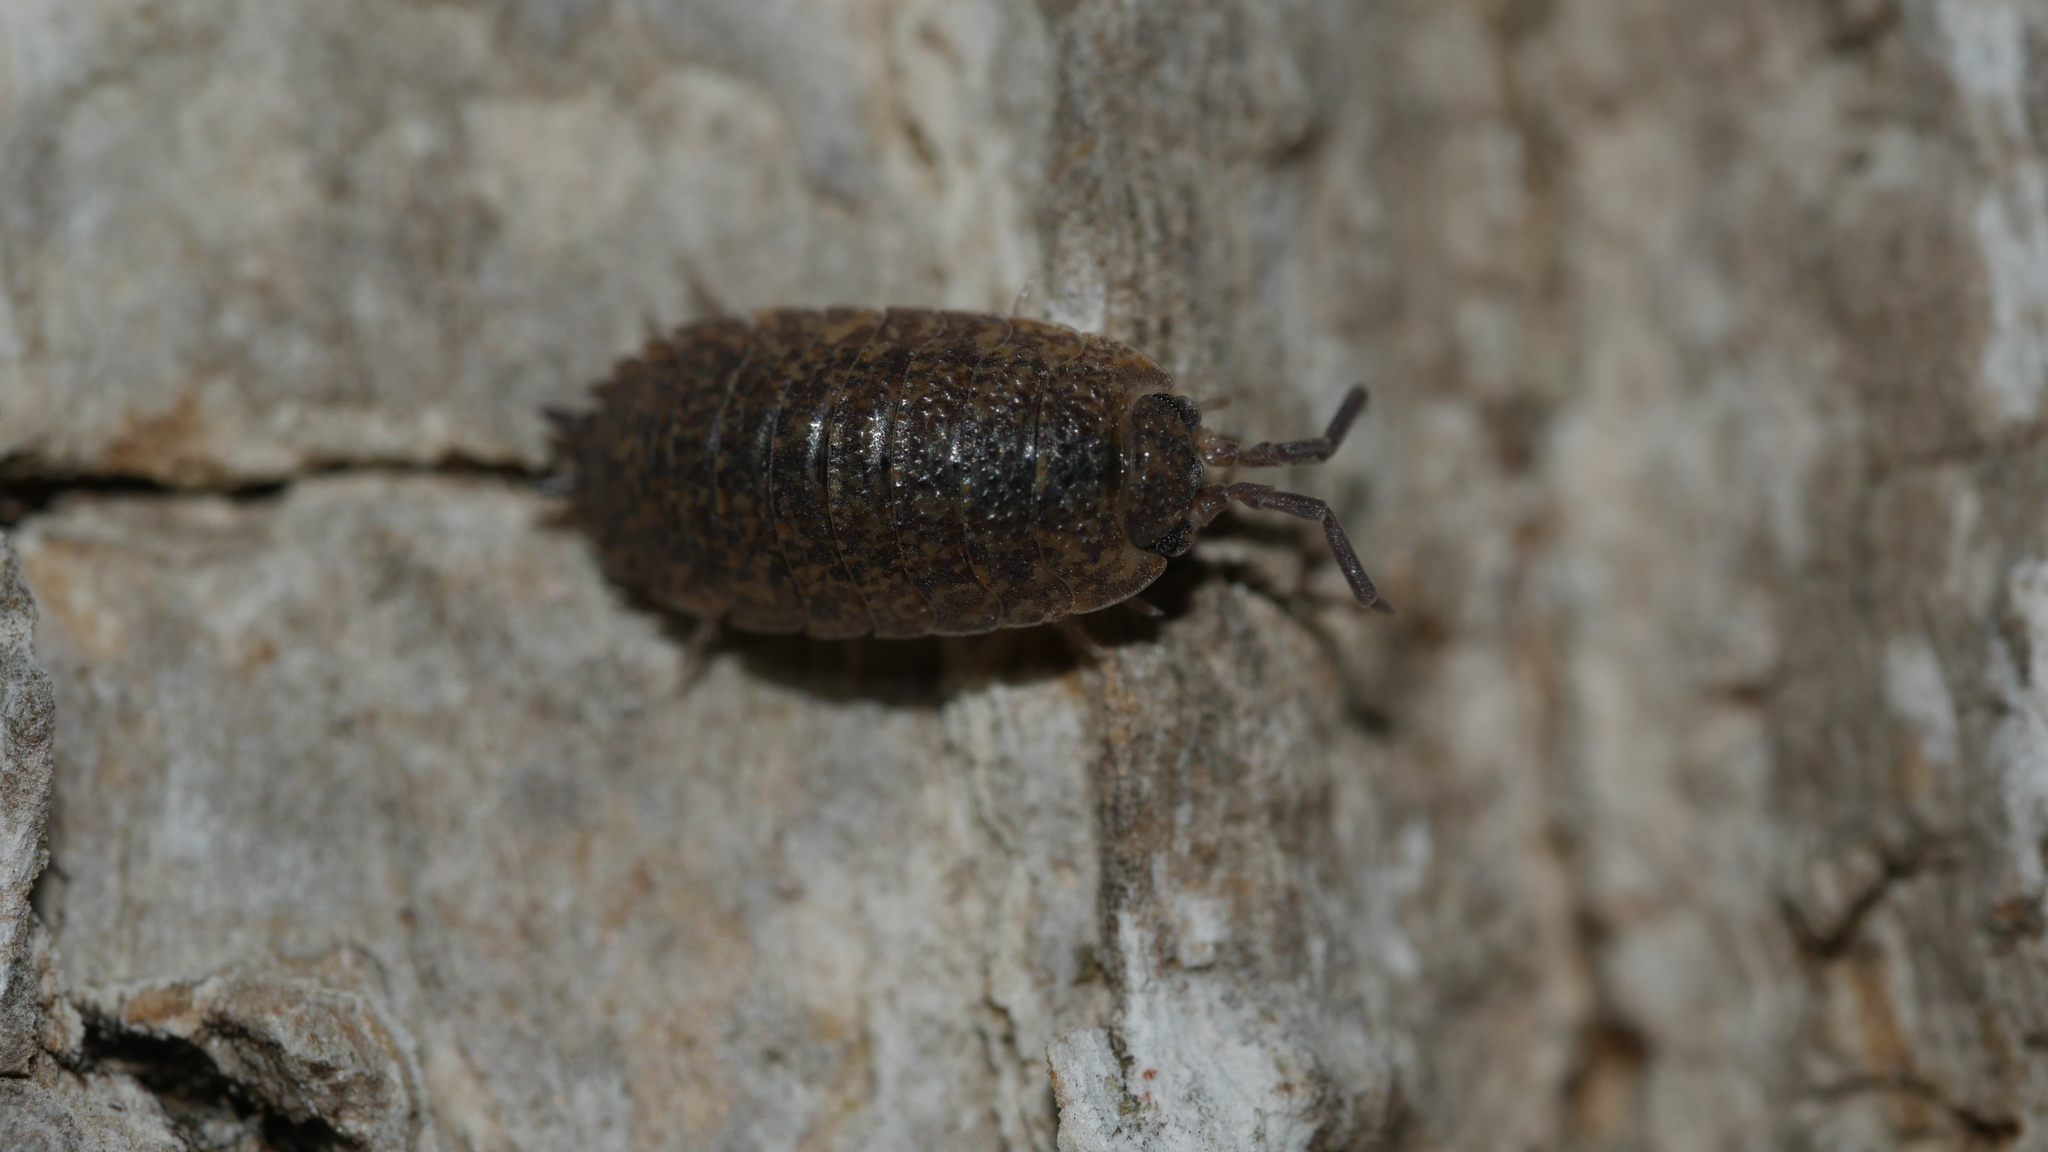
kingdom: Animalia
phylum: Arthropoda
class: Malacostraca
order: Isopoda
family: Porcellionidae
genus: Porcellio
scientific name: Porcellio scaber
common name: Common rough woodlouse
